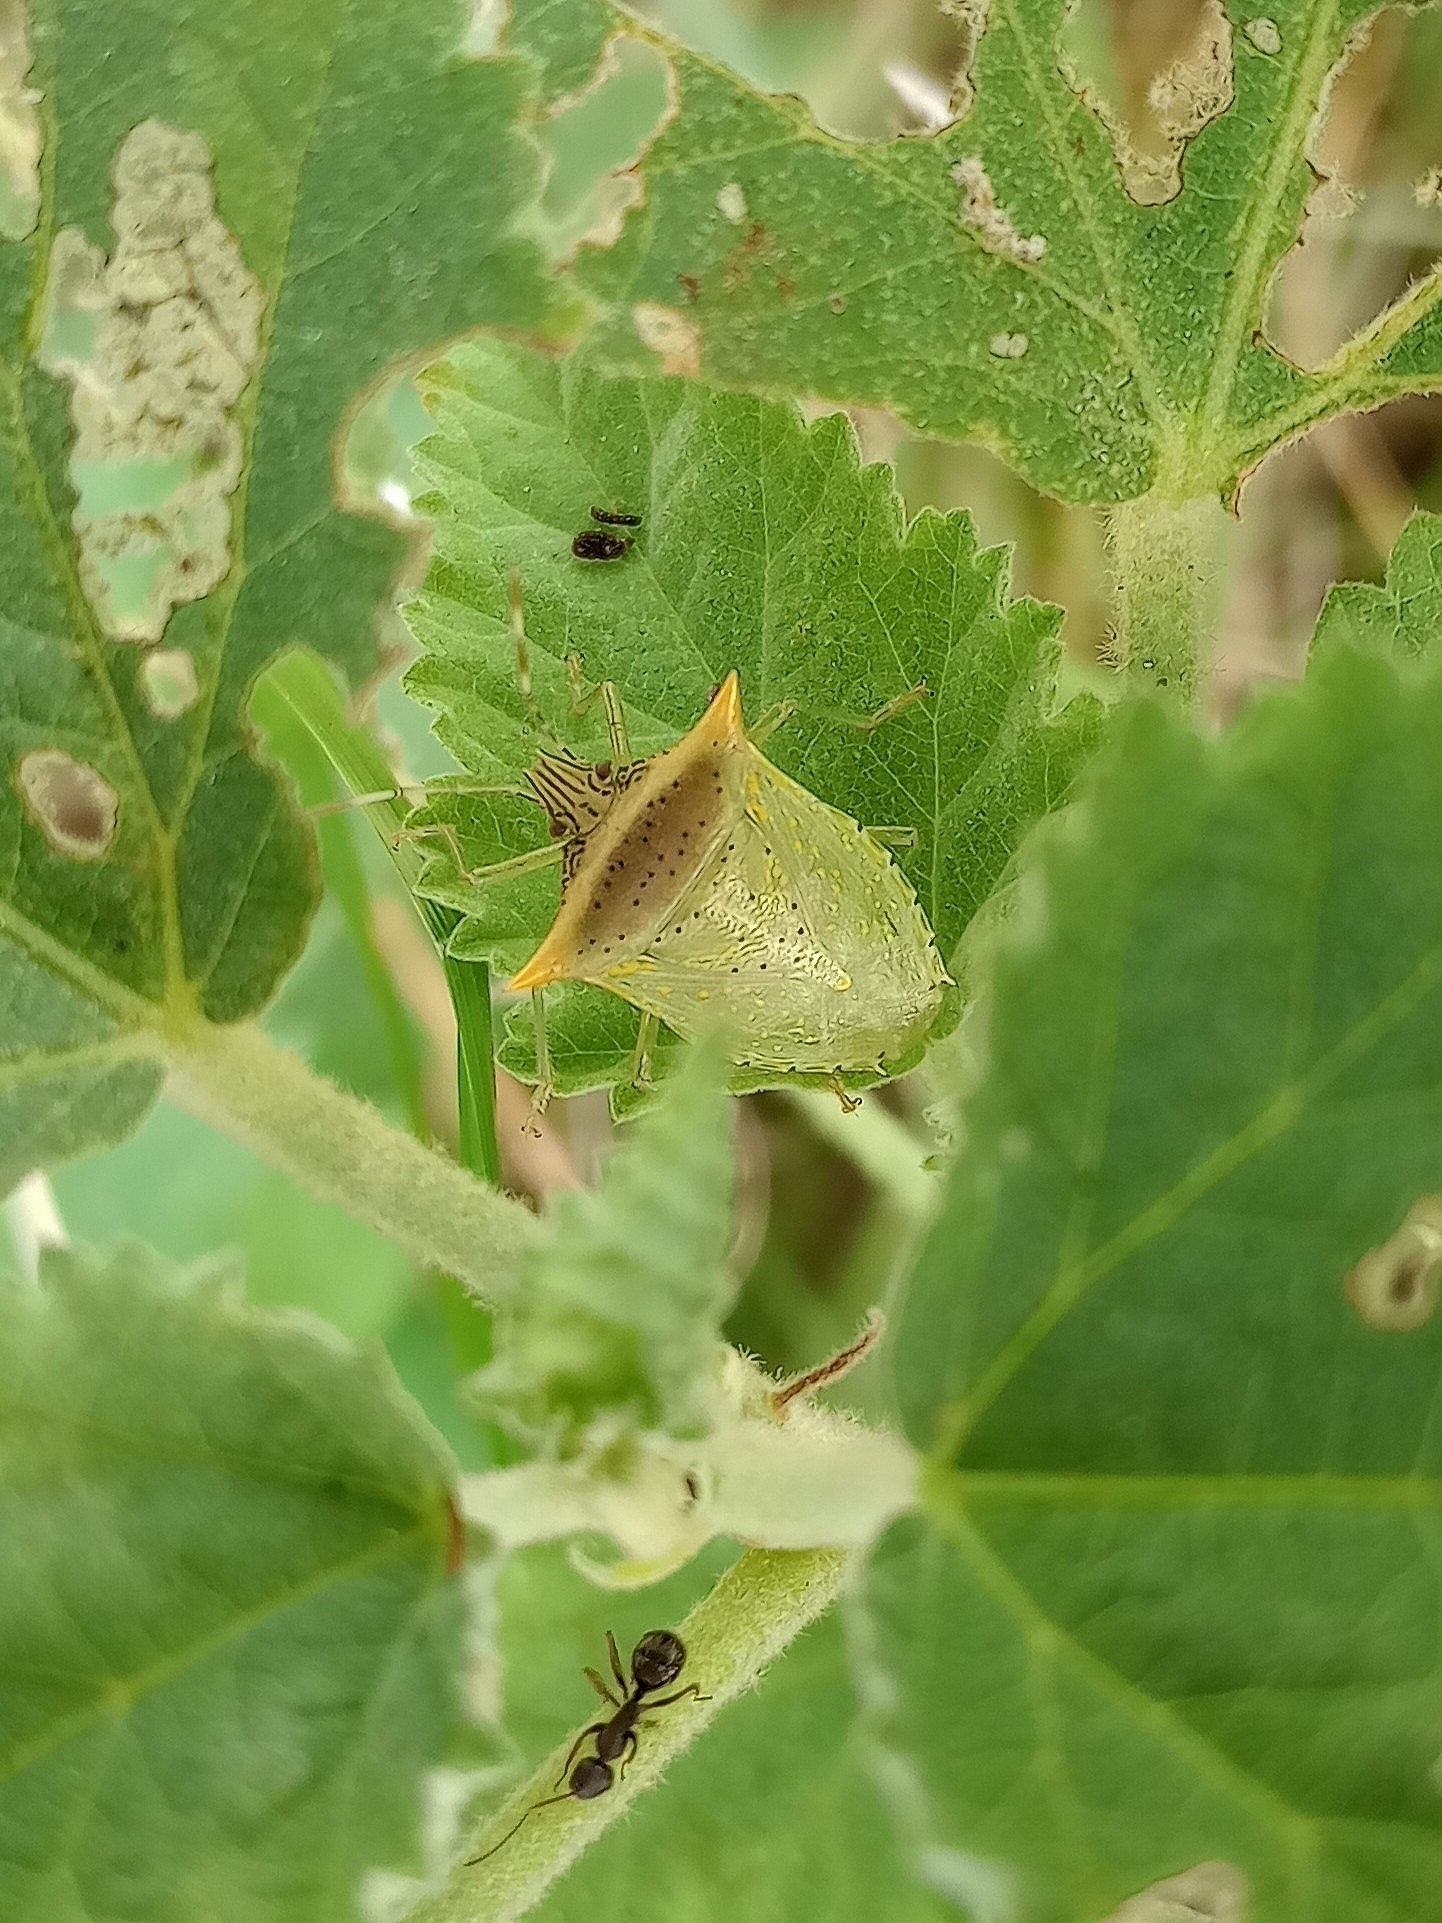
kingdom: Animalia
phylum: Arthropoda
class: Insecta
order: Hemiptera
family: Pentatomidae
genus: Arvelius
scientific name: Arvelius albopunctatus
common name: Tomato stink bug
